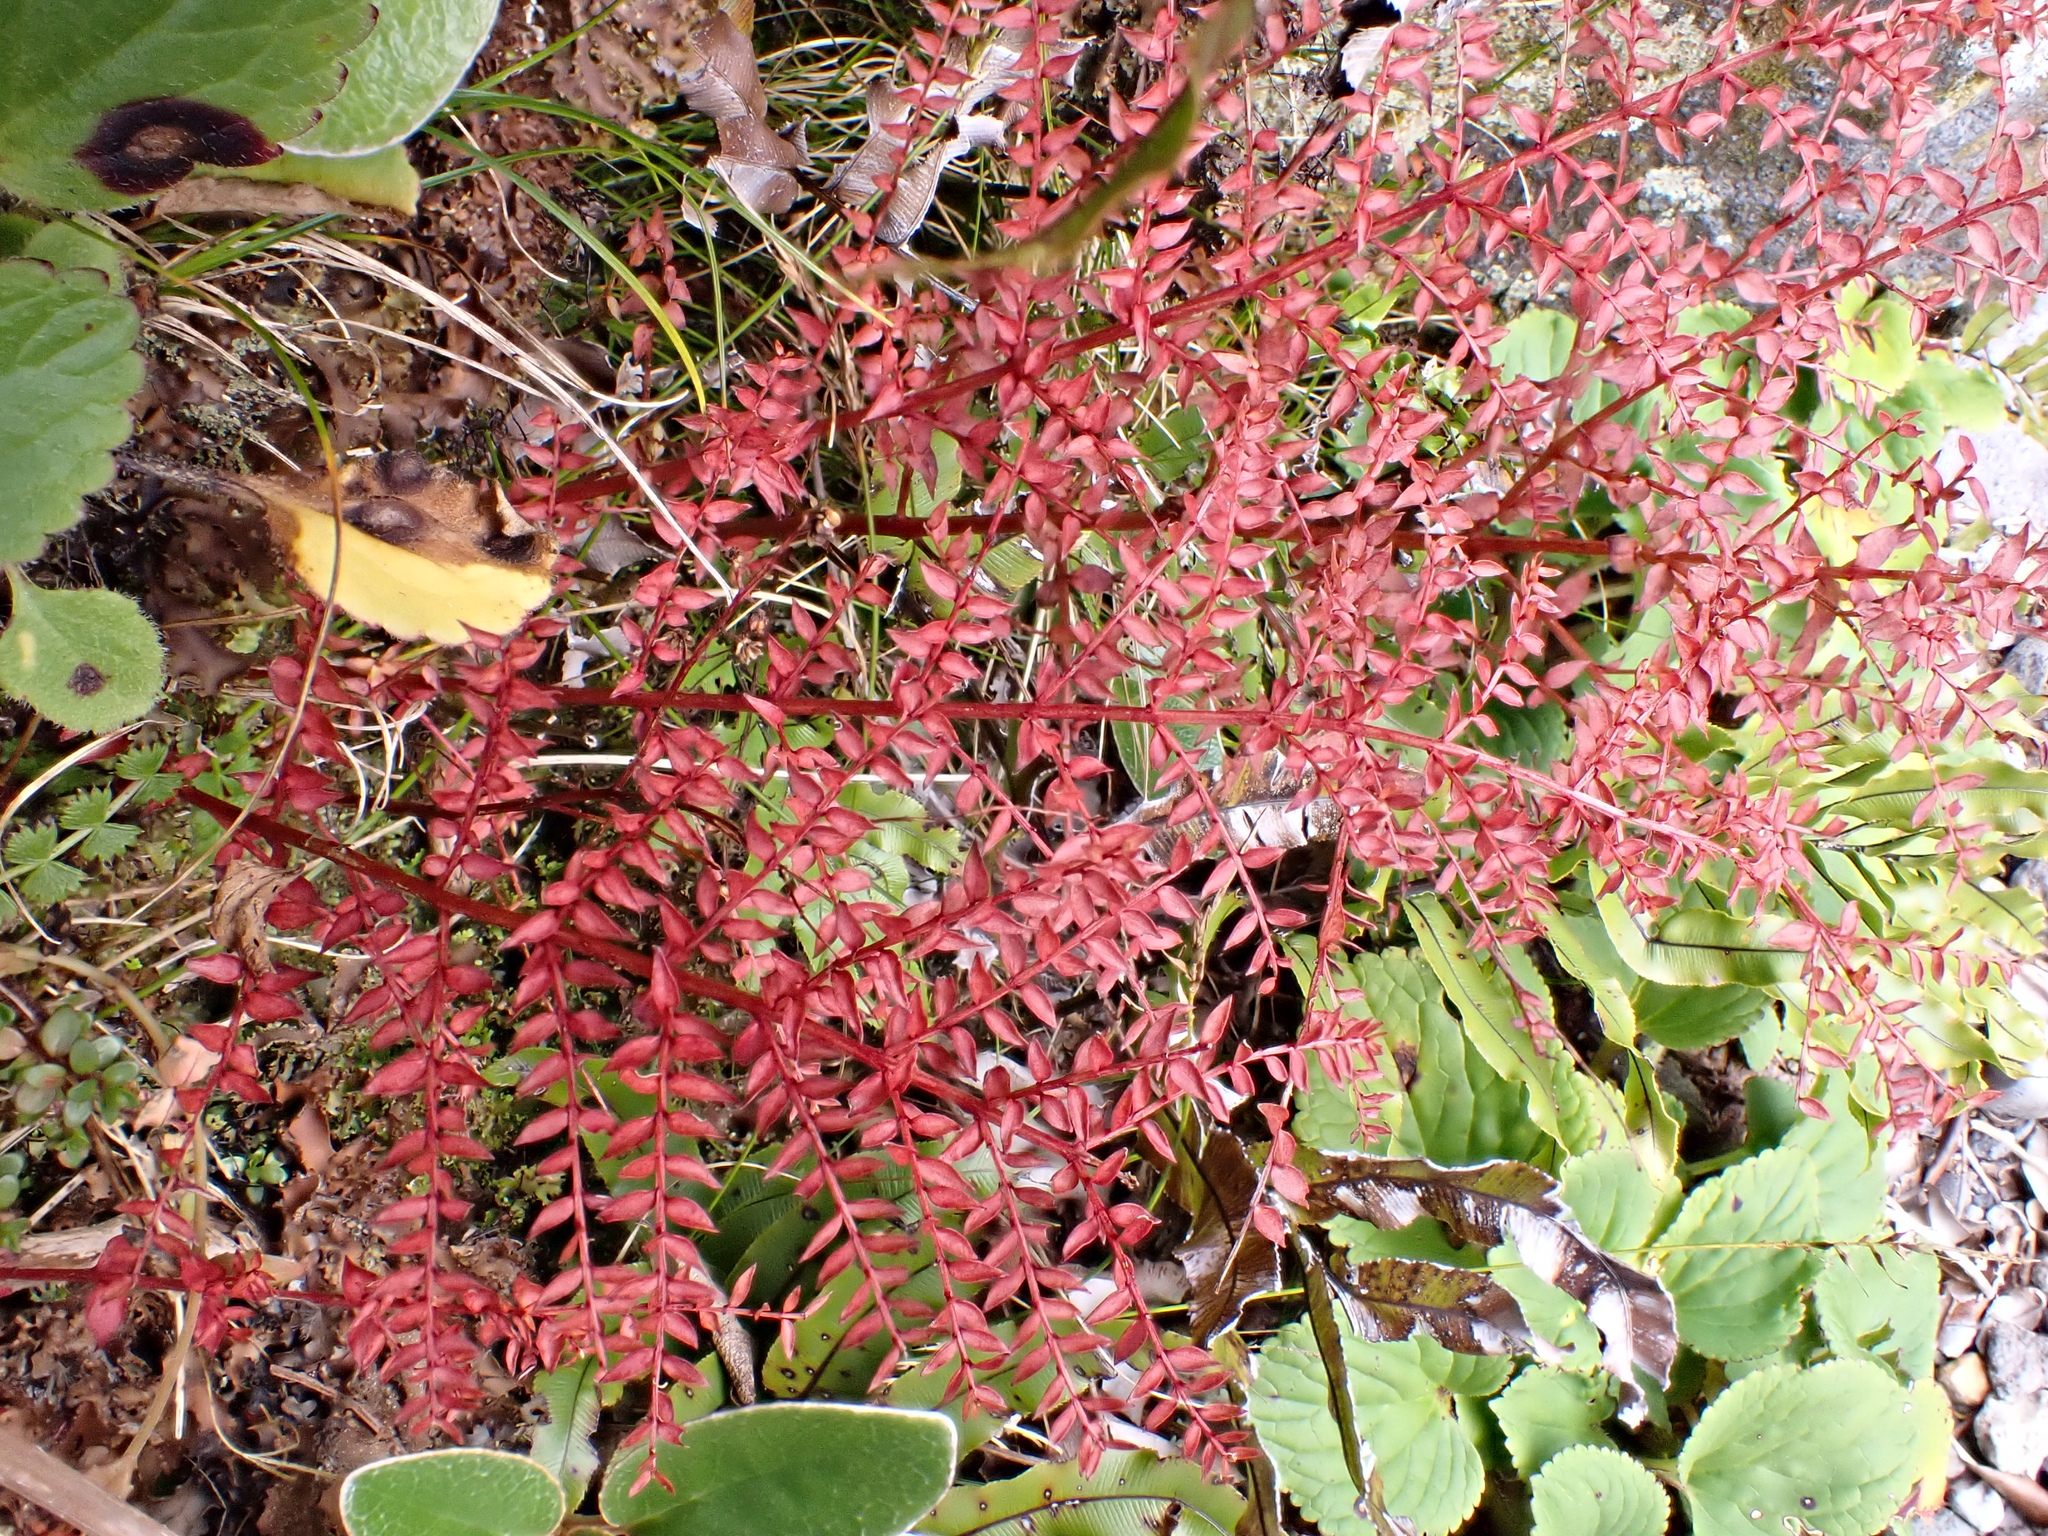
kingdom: Plantae
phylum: Tracheophyta
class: Magnoliopsida
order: Cucurbitales
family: Coriariaceae
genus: Coriaria
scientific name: Coriaria plumosa
